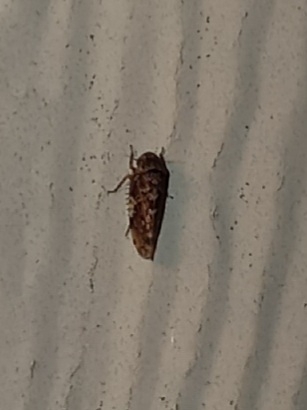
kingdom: Animalia
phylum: Arthropoda
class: Insecta
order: Hemiptera
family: Cicadellidae
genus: Xestocephalus
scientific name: Xestocephalus tessellatus
